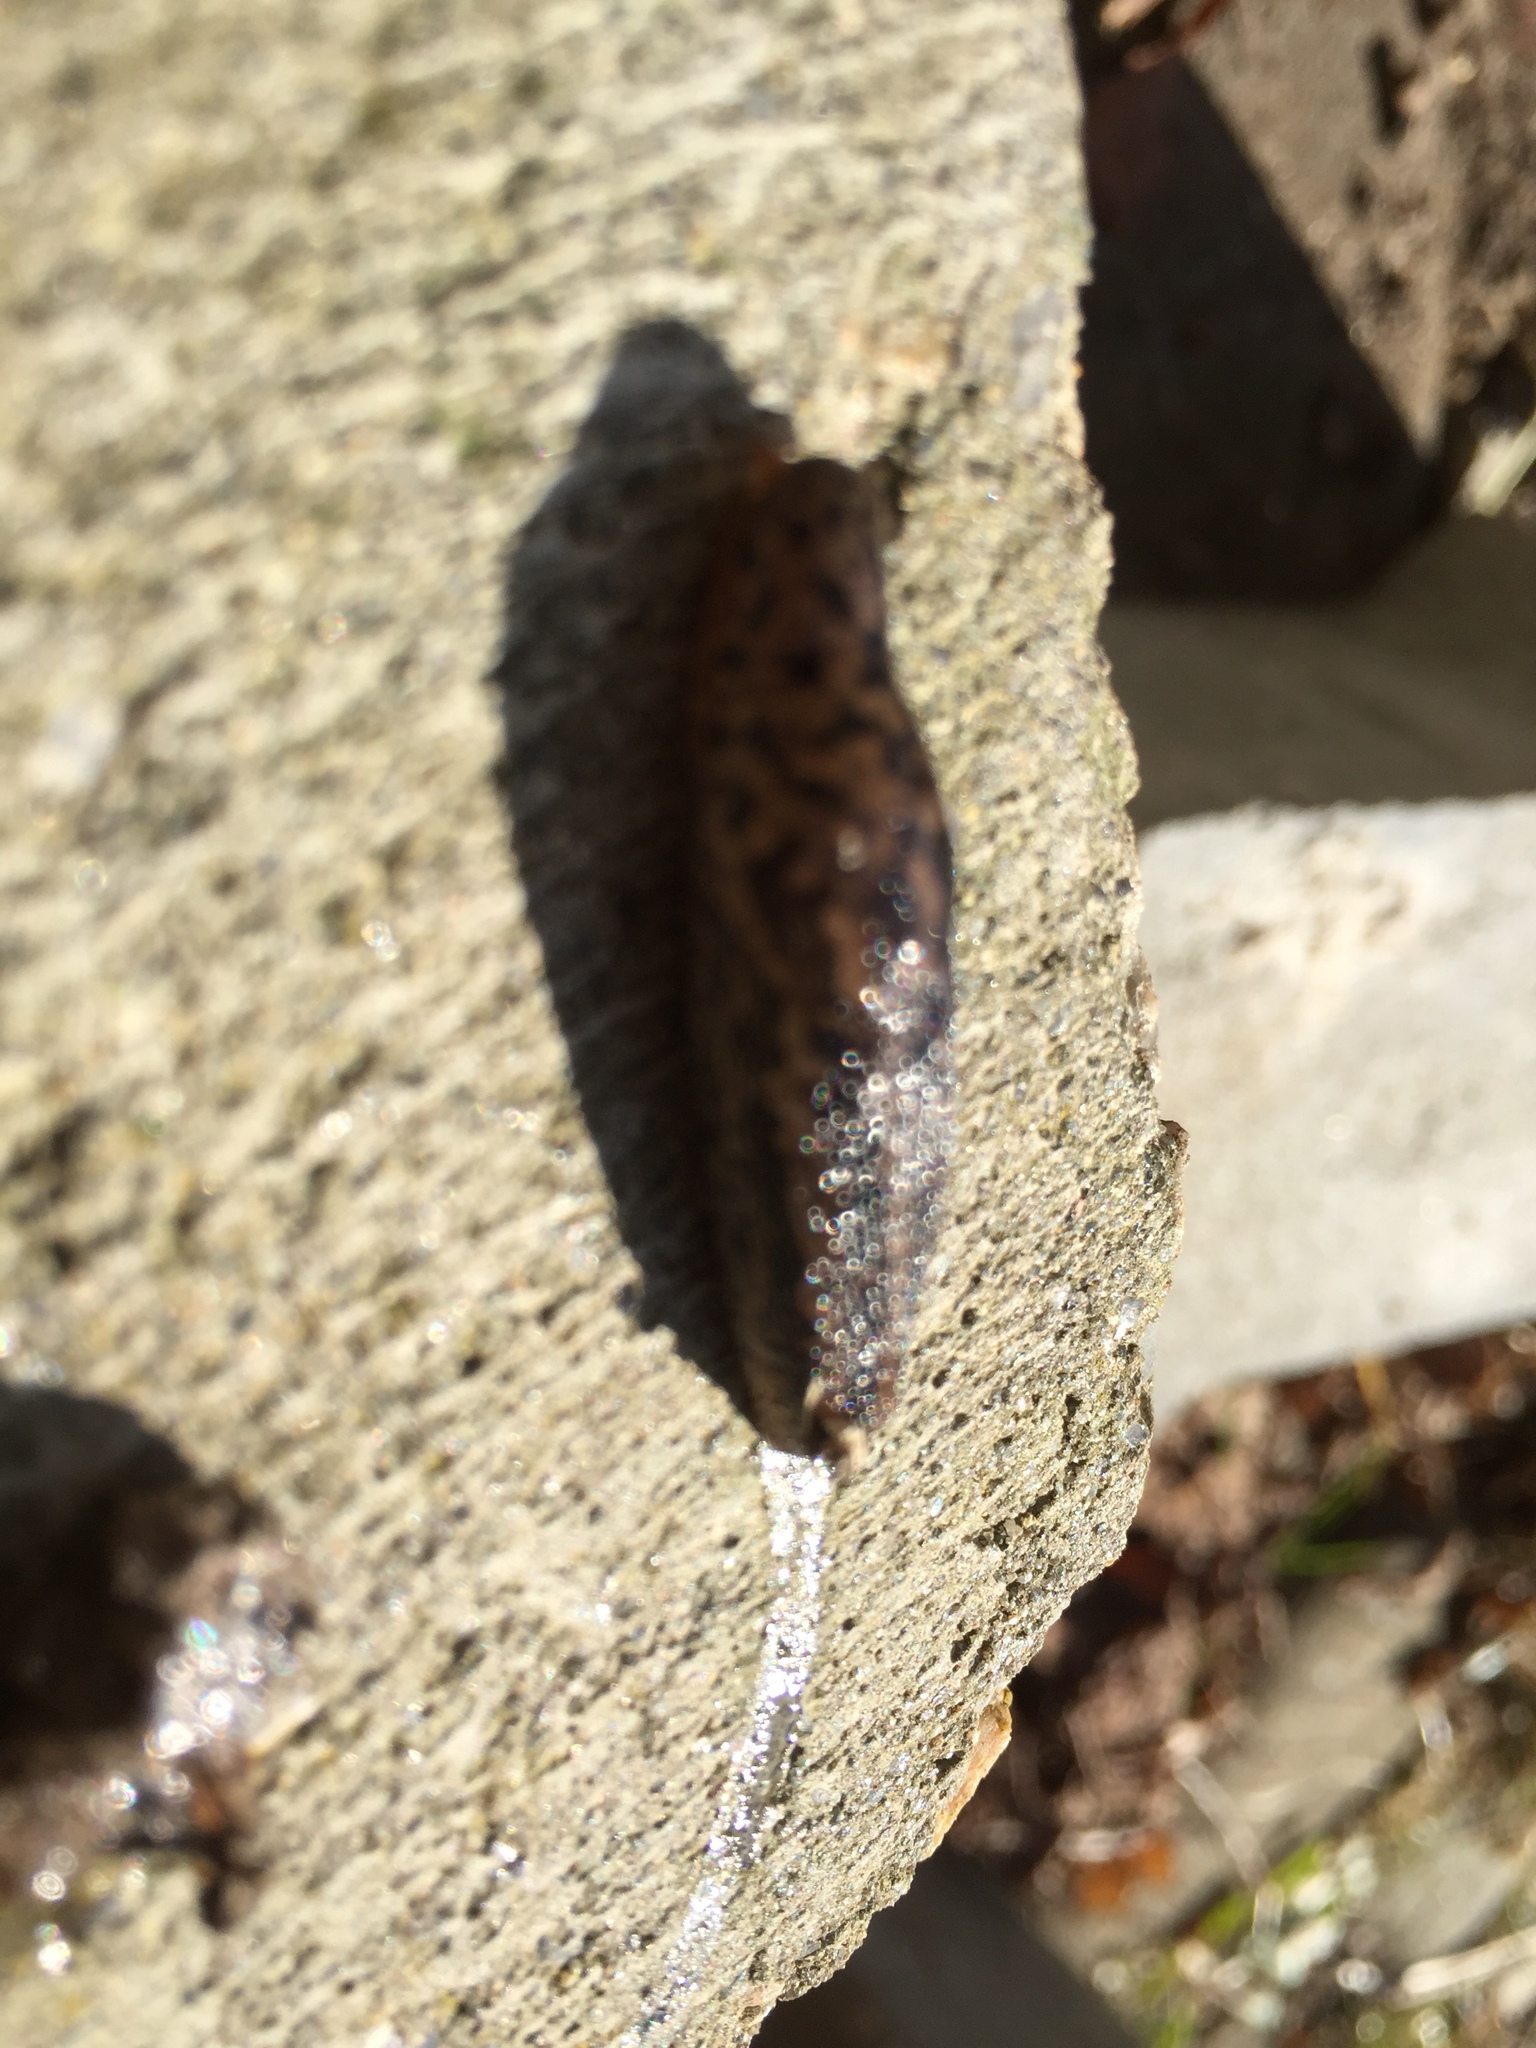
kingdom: Animalia
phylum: Mollusca
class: Gastropoda
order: Stylommatophora
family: Limacidae
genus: Limax
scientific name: Limax maximus
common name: Great grey slug
